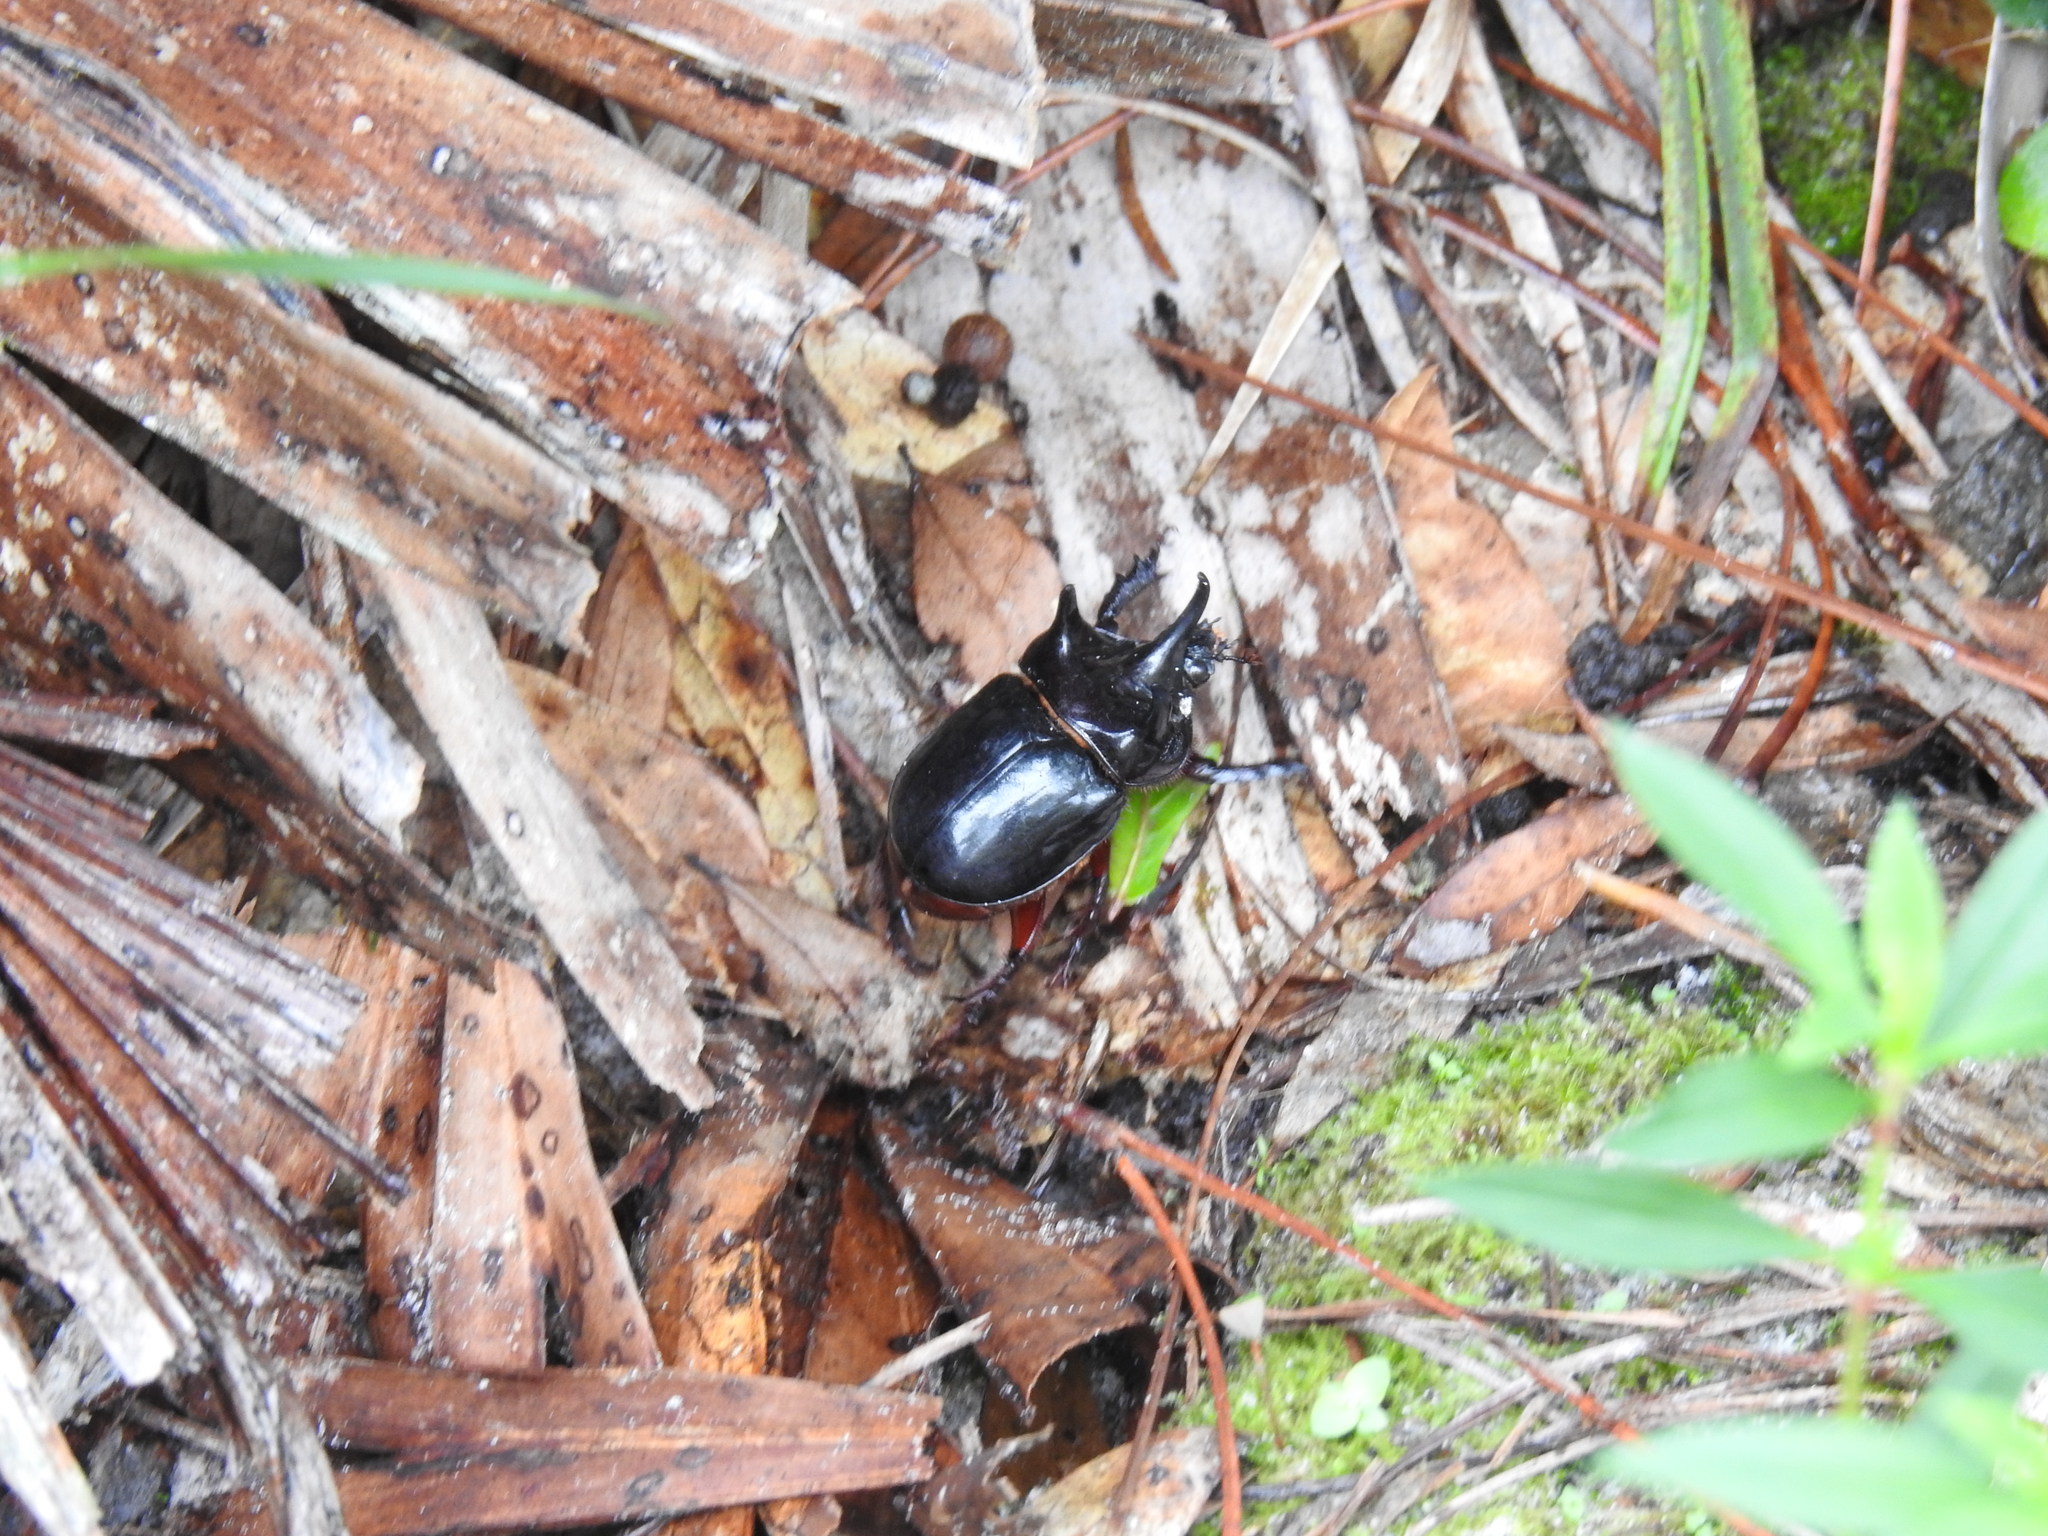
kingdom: Animalia
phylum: Arthropoda
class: Insecta
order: Coleoptera
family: Scarabaeidae
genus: Strategus
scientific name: Strategus antaeus
